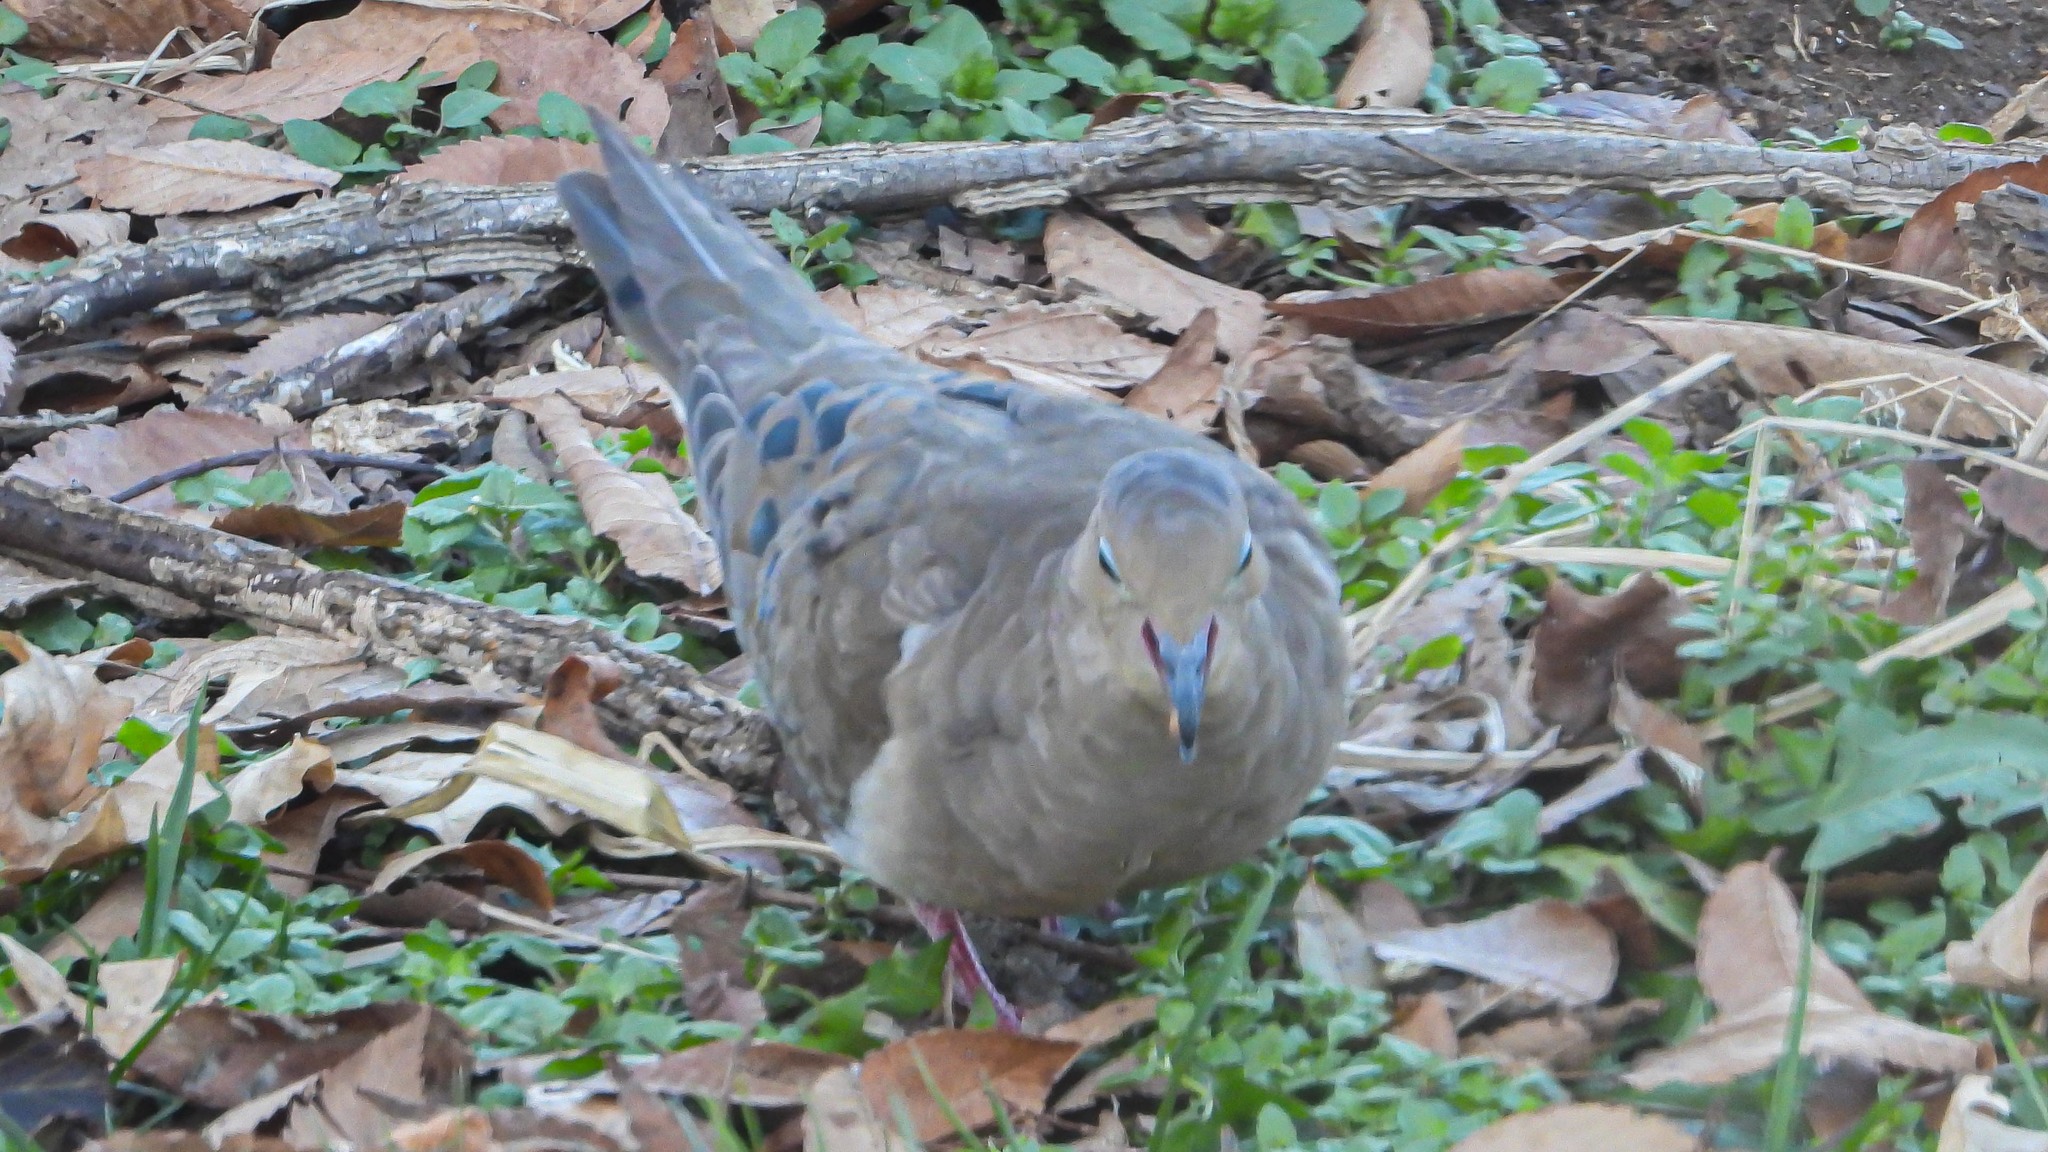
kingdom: Animalia
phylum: Chordata
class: Aves
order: Columbiformes
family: Columbidae
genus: Zenaida
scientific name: Zenaida macroura
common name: Mourning dove
